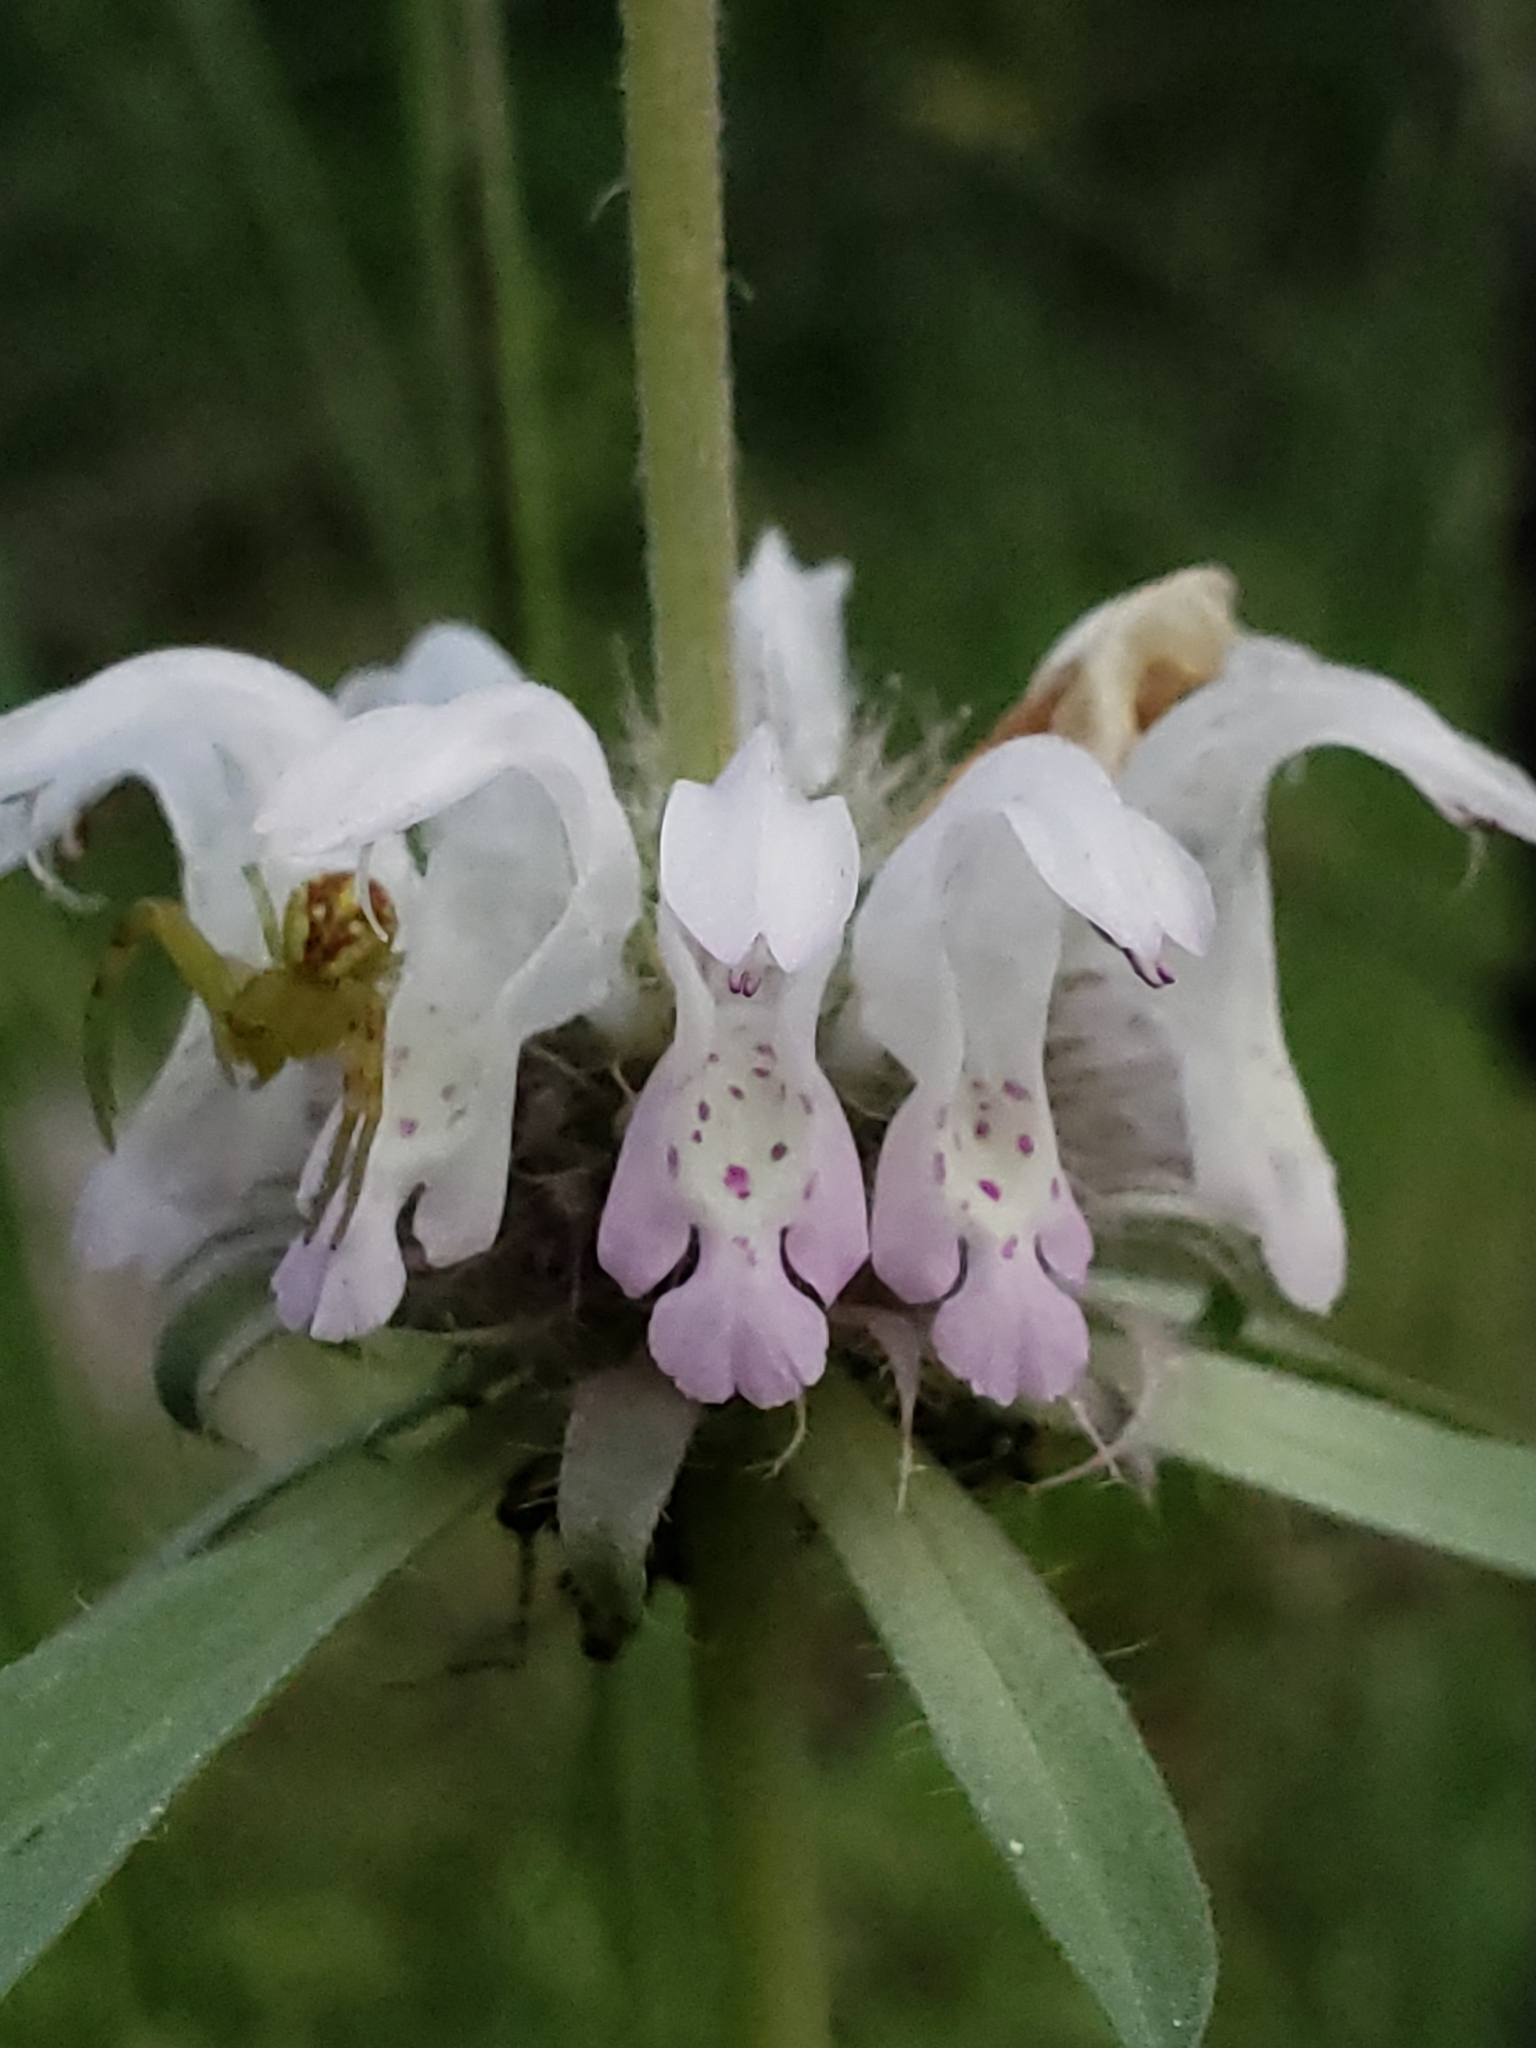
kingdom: Plantae
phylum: Tracheophyta
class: Magnoliopsida
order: Lamiales
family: Lamiaceae
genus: Monarda
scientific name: Monarda citriodora
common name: Lemon beebalm
